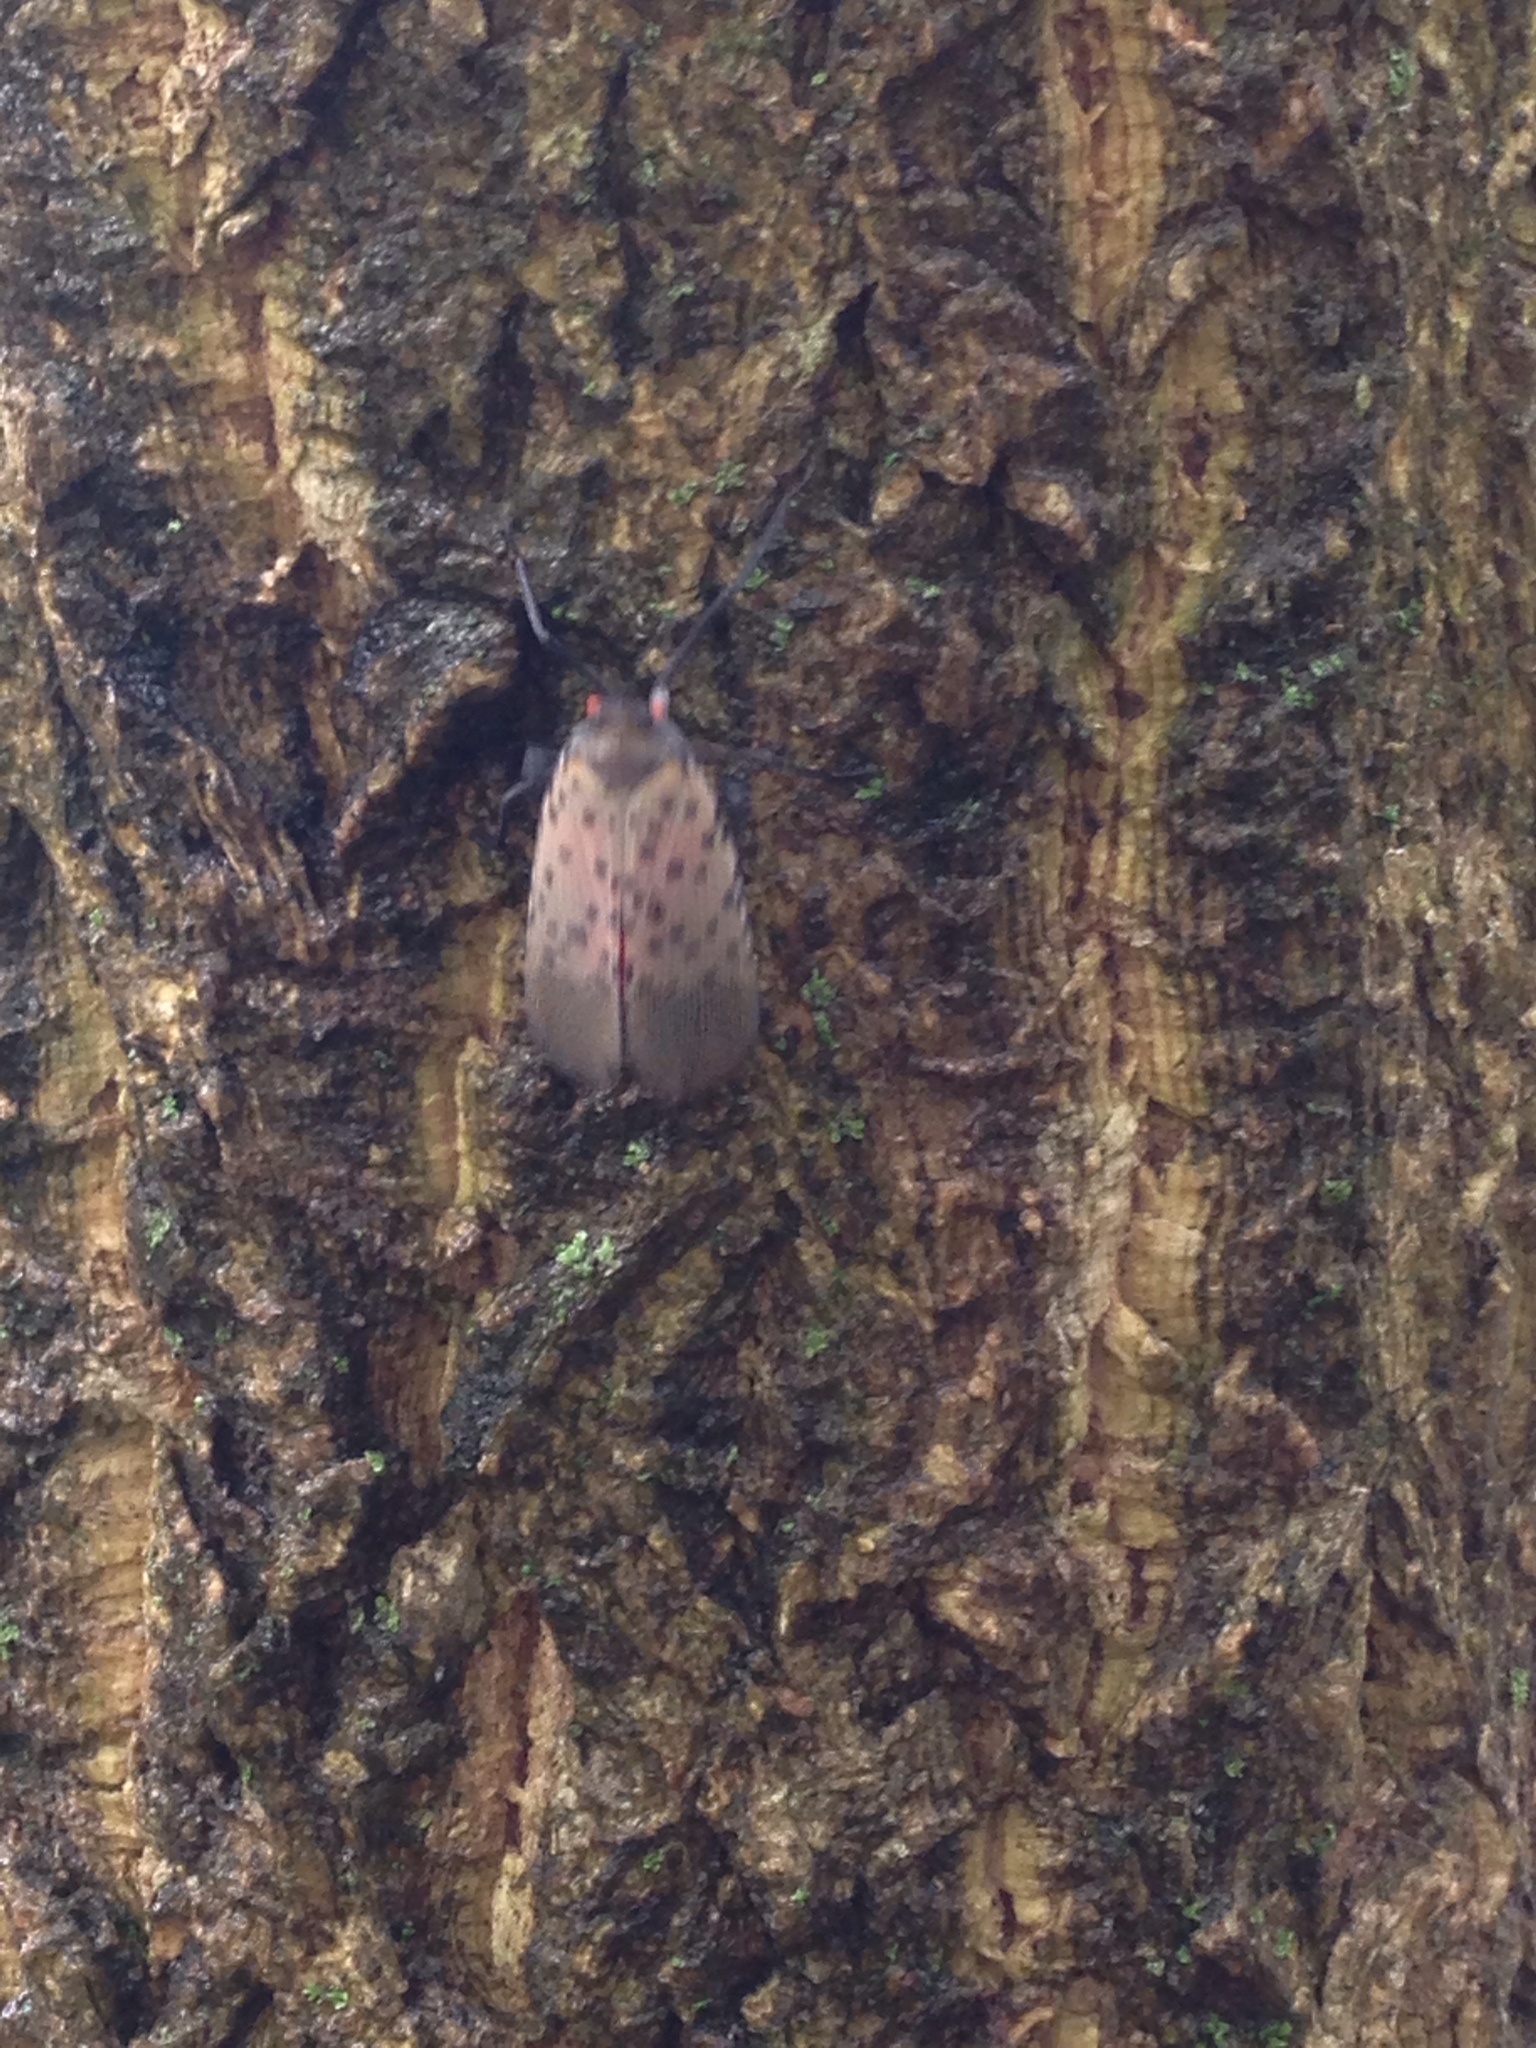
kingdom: Animalia
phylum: Arthropoda
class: Insecta
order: Hemiptera
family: Fulgoridae
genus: Lycorma
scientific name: Lycorma delicatula
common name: Spotted lanternfly
